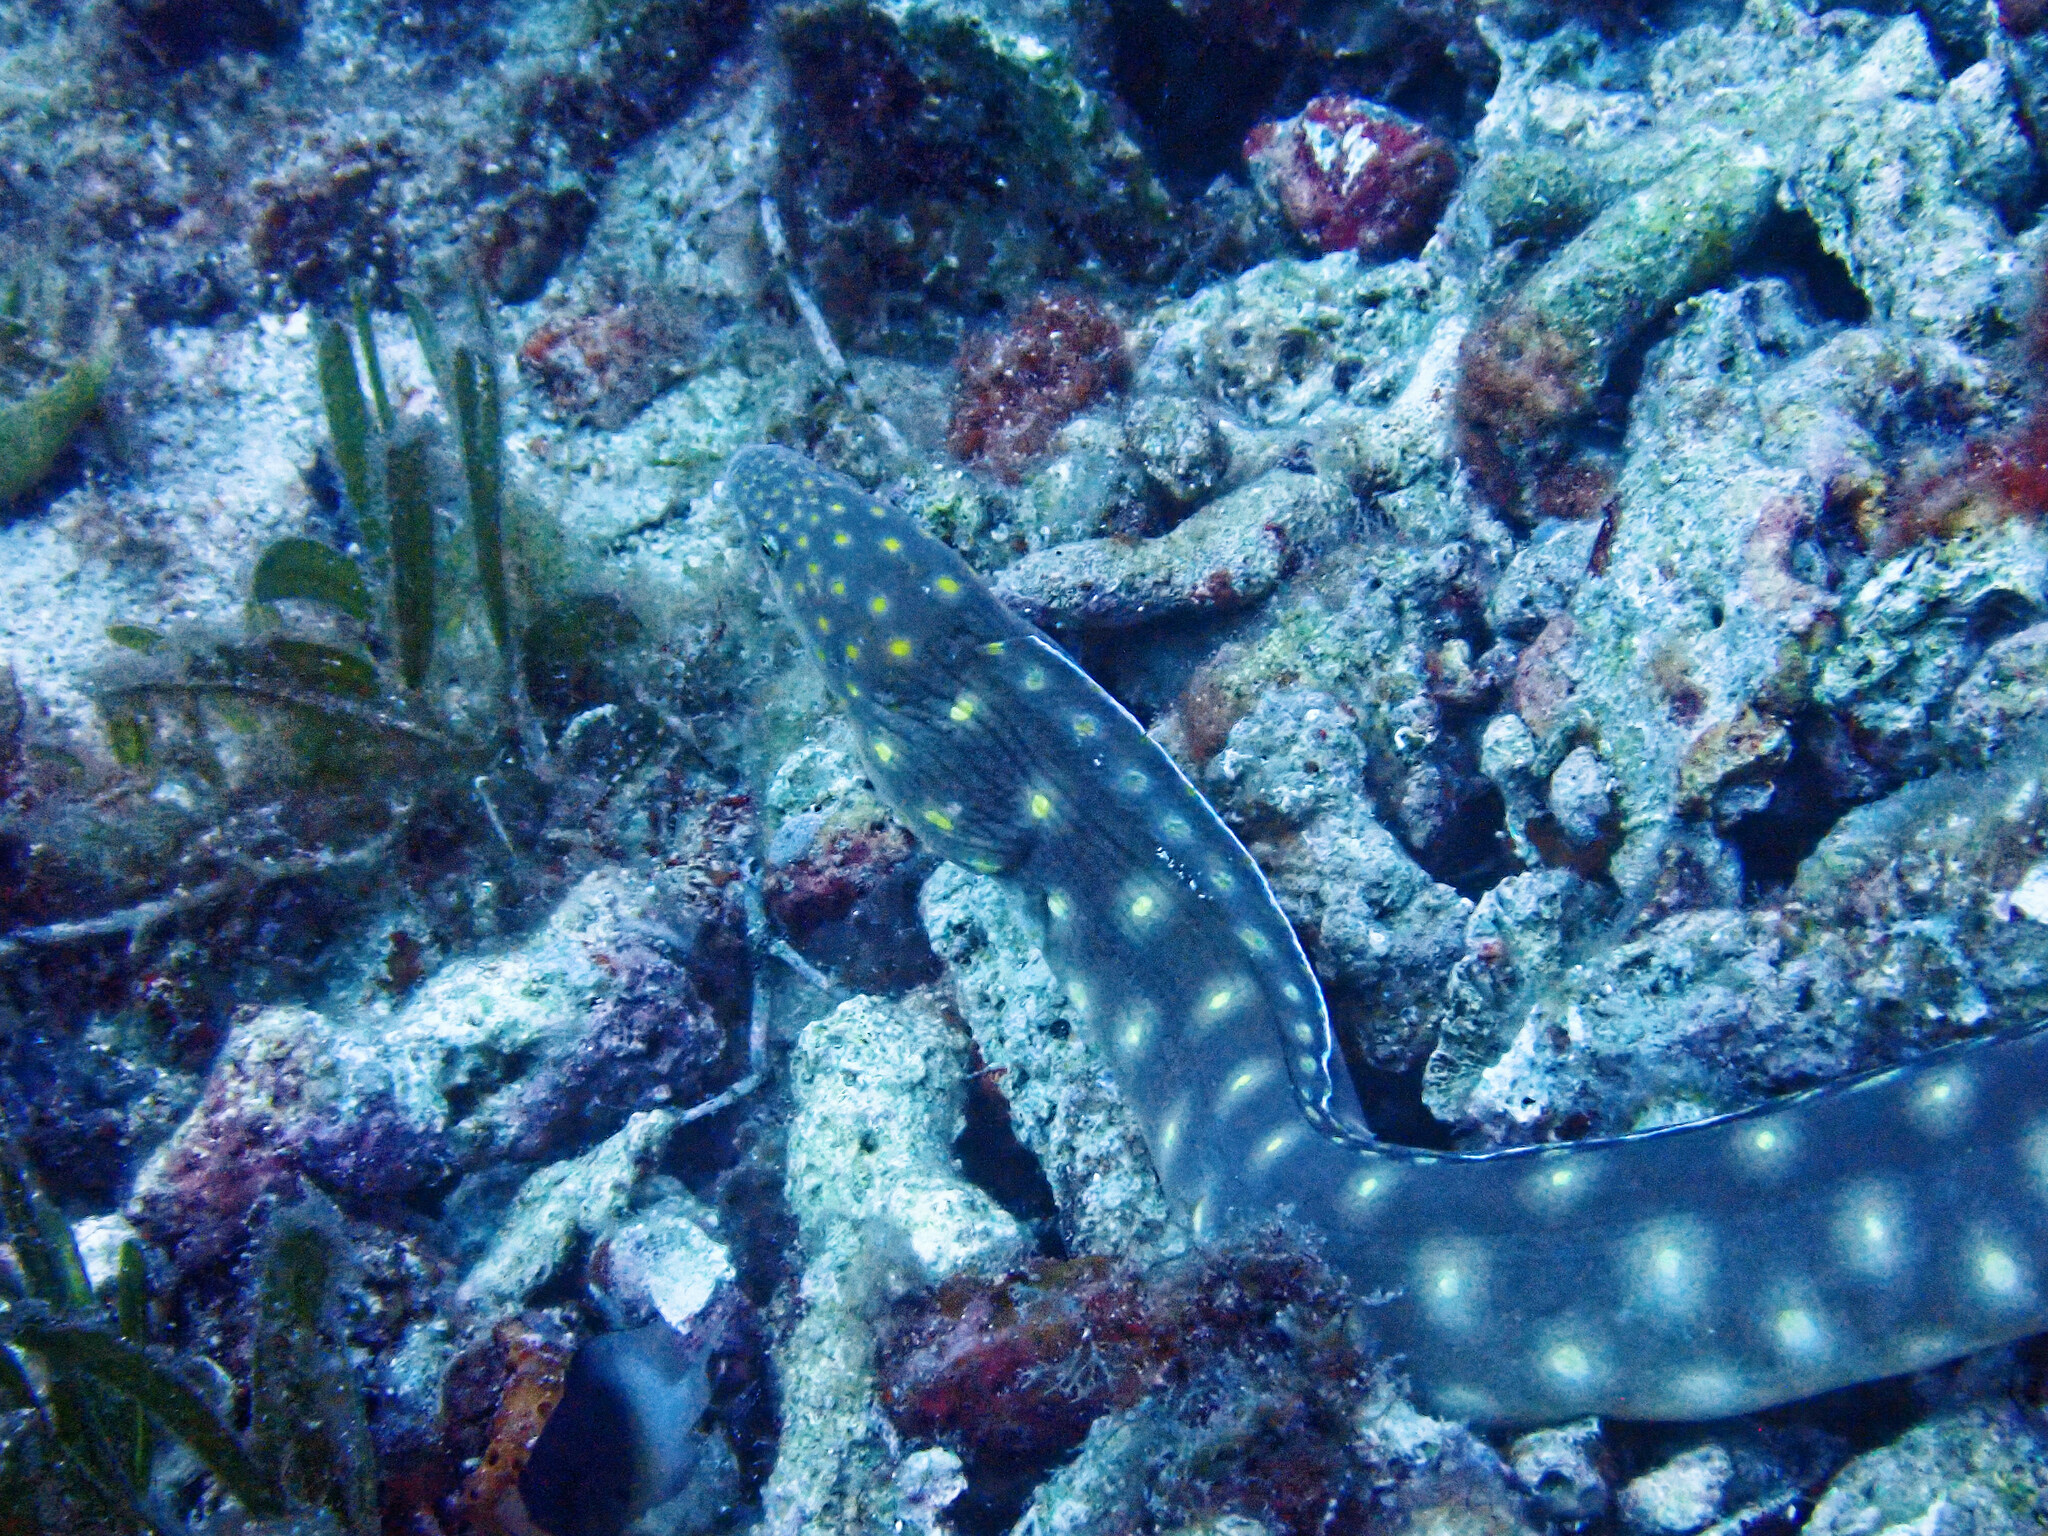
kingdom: Animalia
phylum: Chordata
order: Anguilliformes
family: Ophichthidae
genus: Myrichthys
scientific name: Myrichthys breviceps
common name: Sharptail eel
